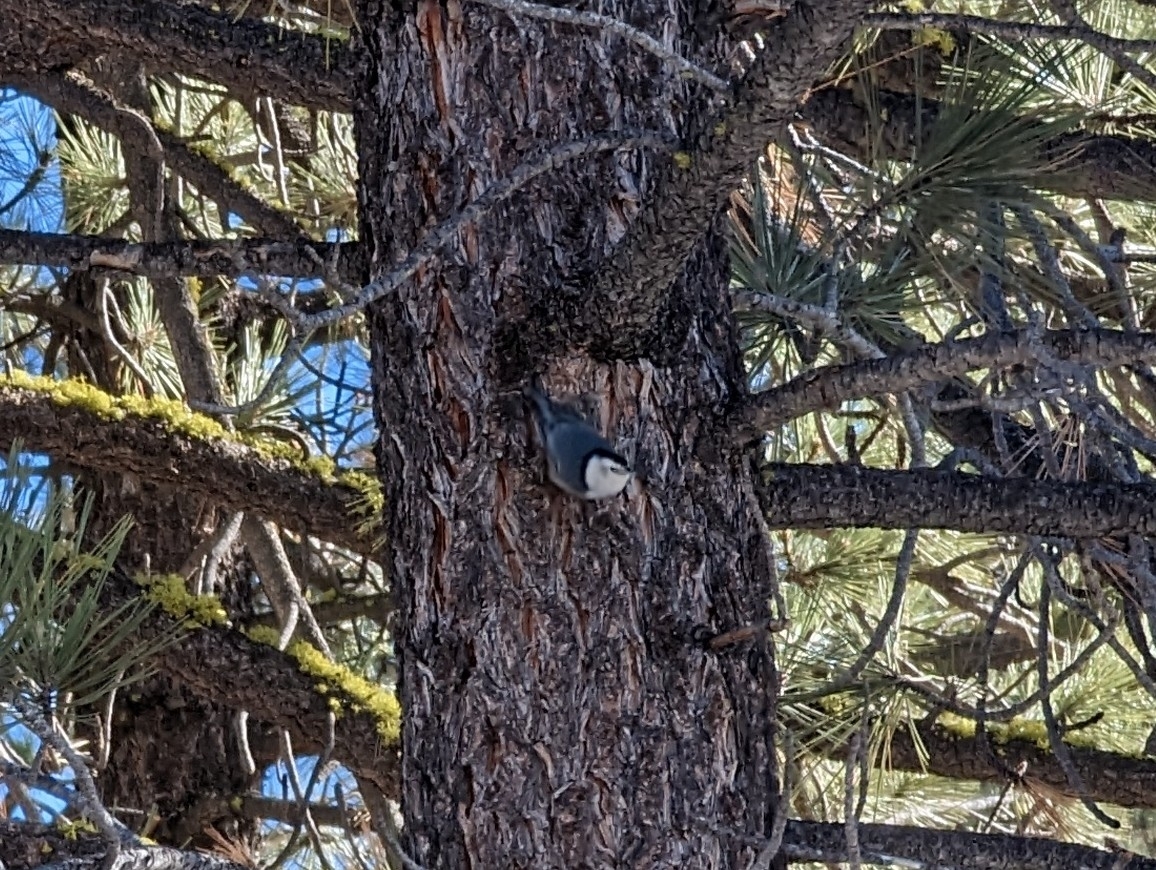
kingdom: Animalia
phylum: Chordata
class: Aves
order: Passeriformes
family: Sittidae
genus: Sitta
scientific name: Sitta carolinensis
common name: White-breasted nuthatch
